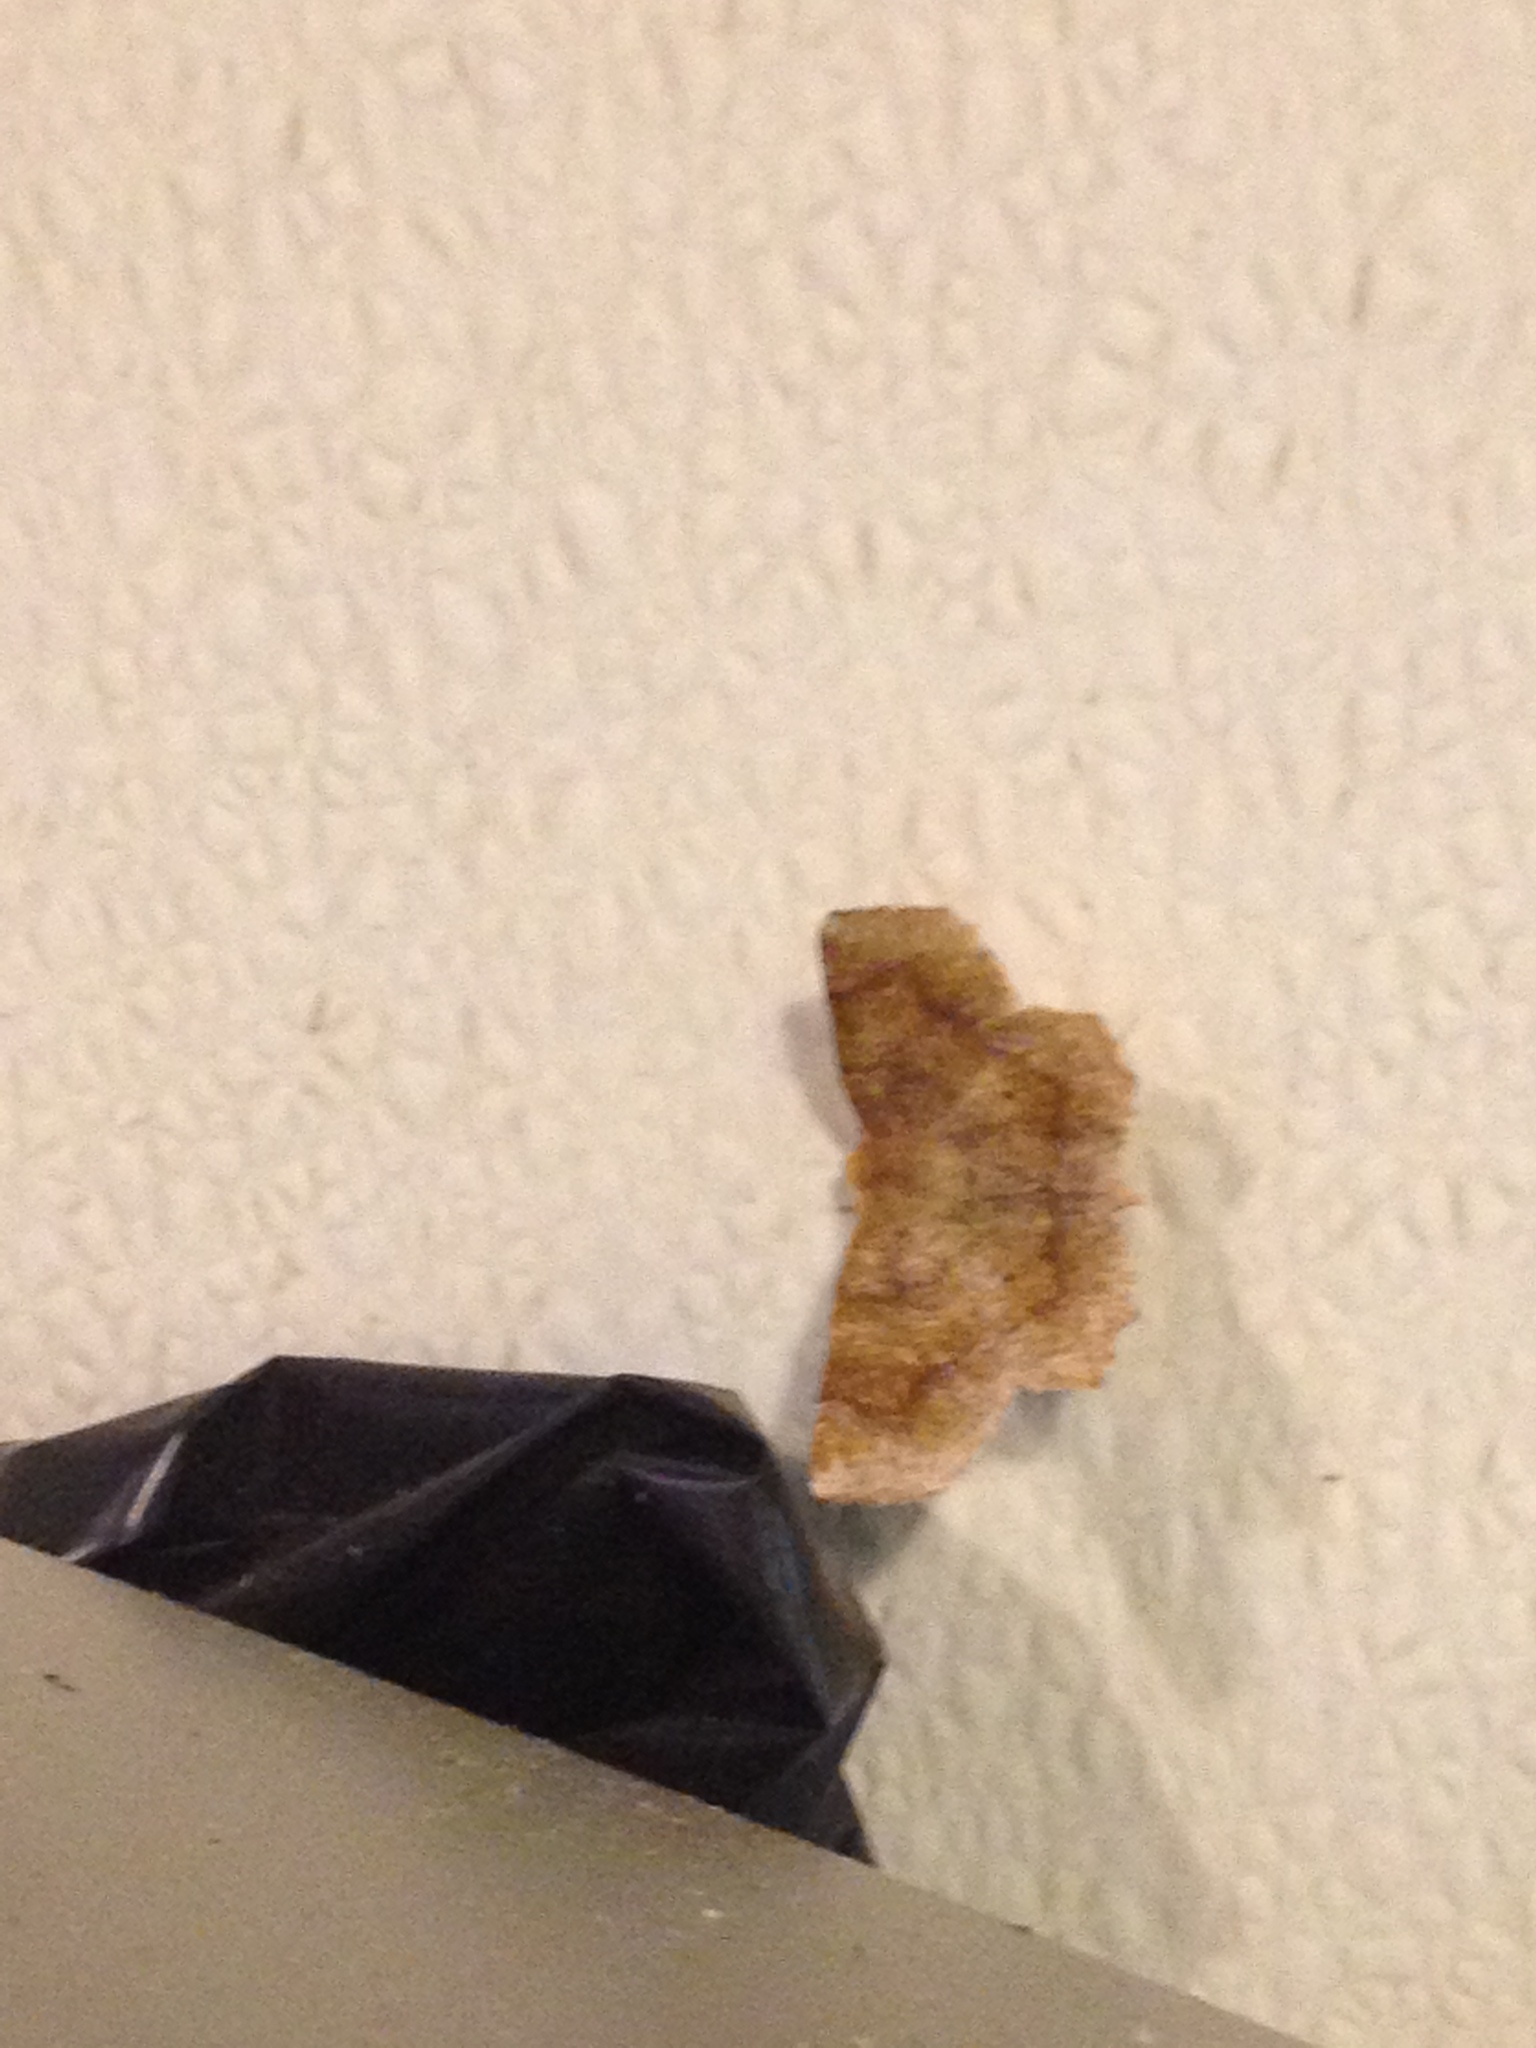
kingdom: Animalia
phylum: Arthropoda
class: Insecta
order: Lepidoptera
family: Geometridae
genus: Metarranthis
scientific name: Metarranthis hypochraria
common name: Common metarranthis
